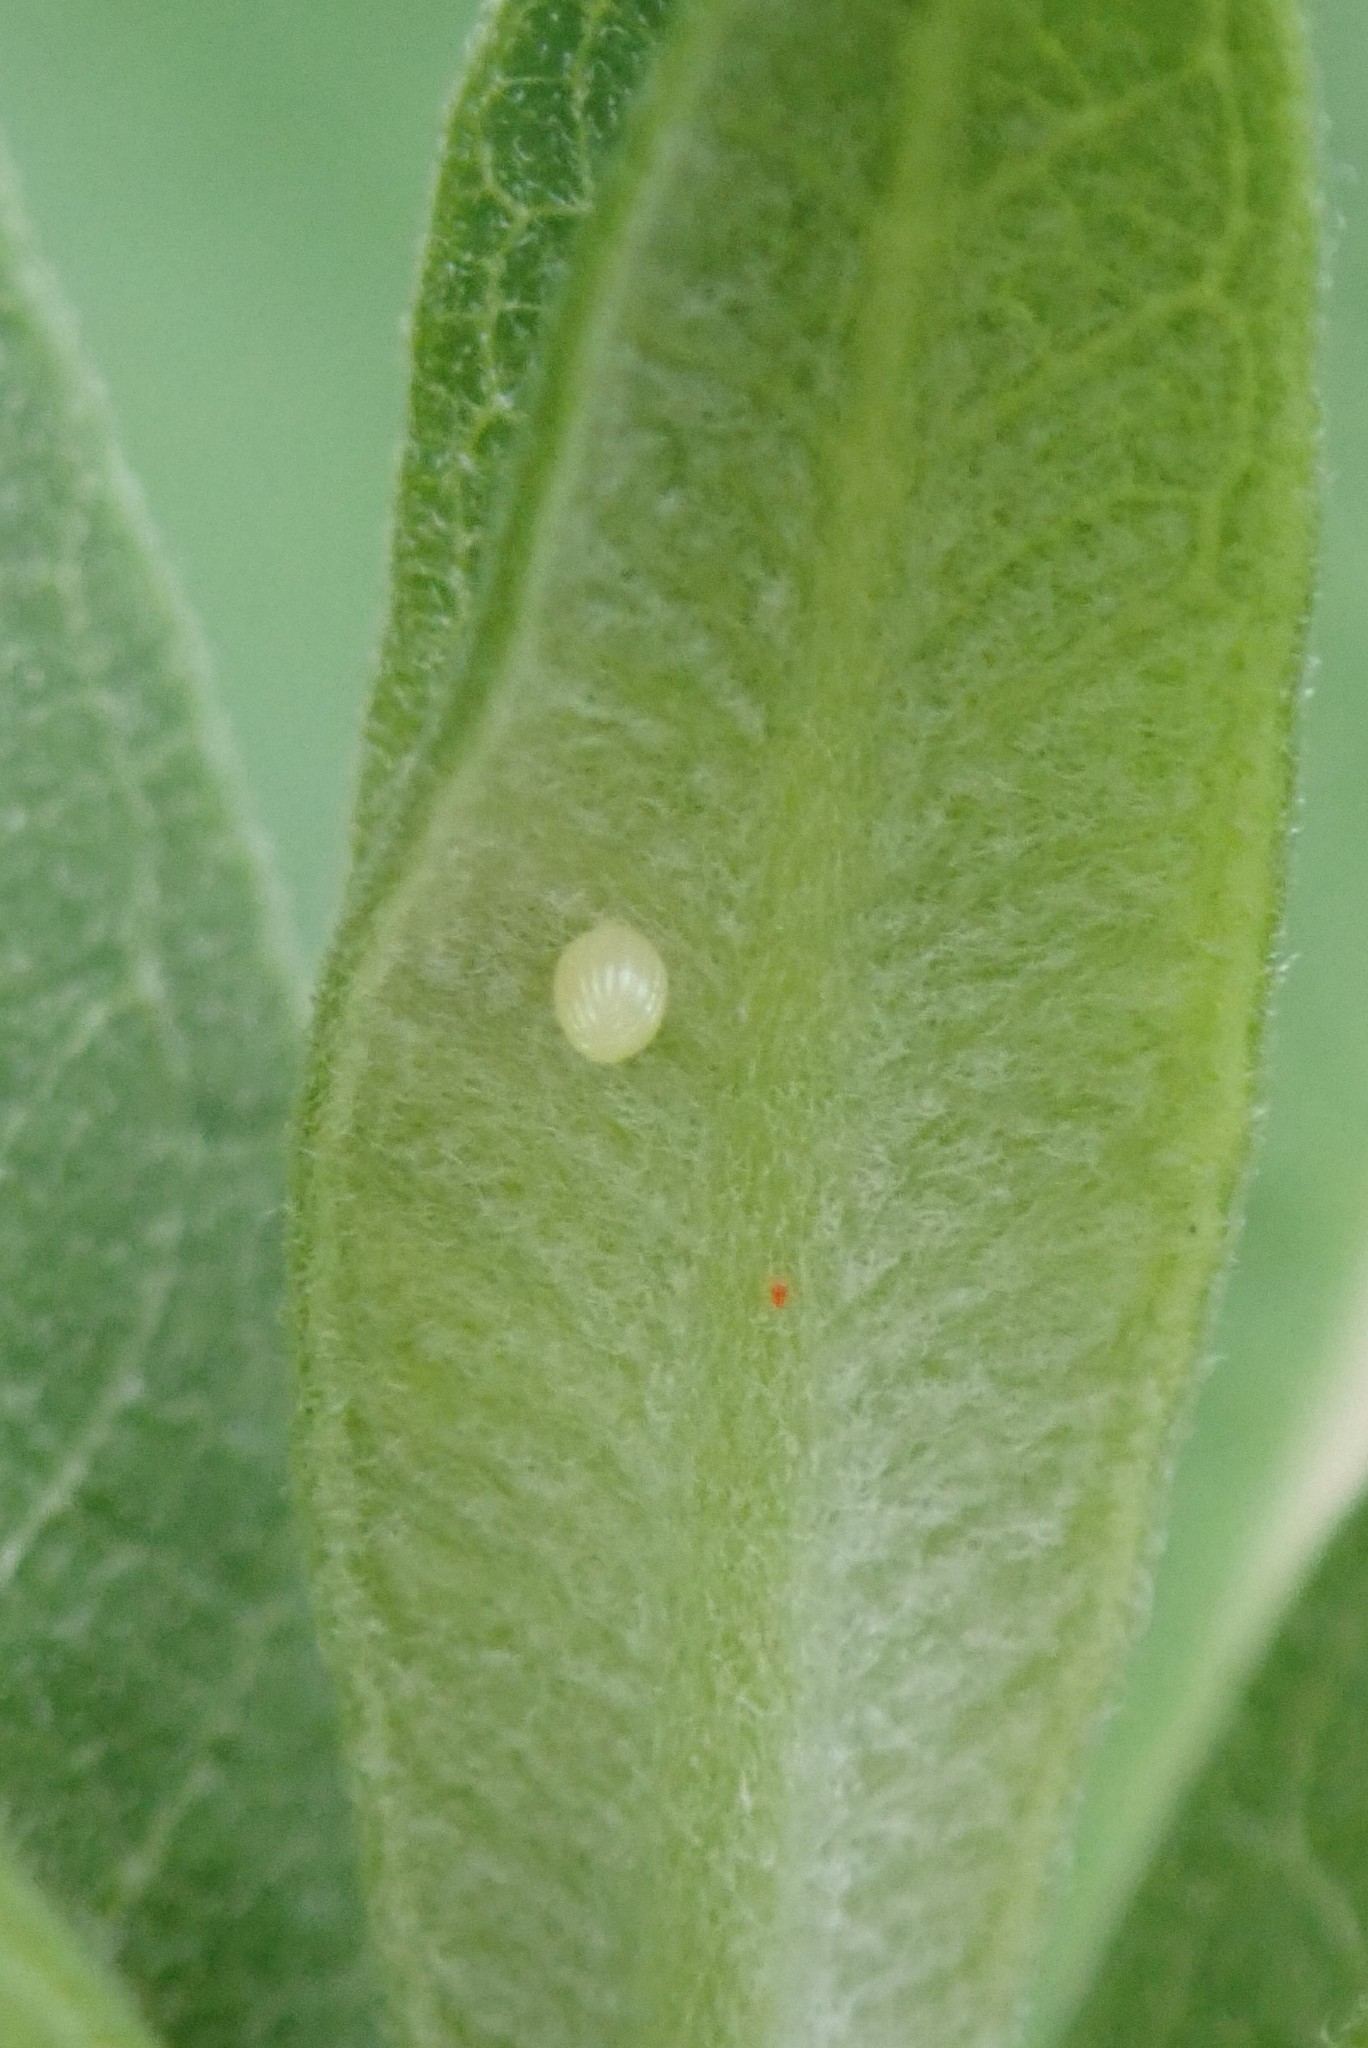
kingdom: Animalia
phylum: Arthropoda
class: Insecta
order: Lepidoptera
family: Nymphalidae
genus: Danaus
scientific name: Danaus plexippus
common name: Monarch
